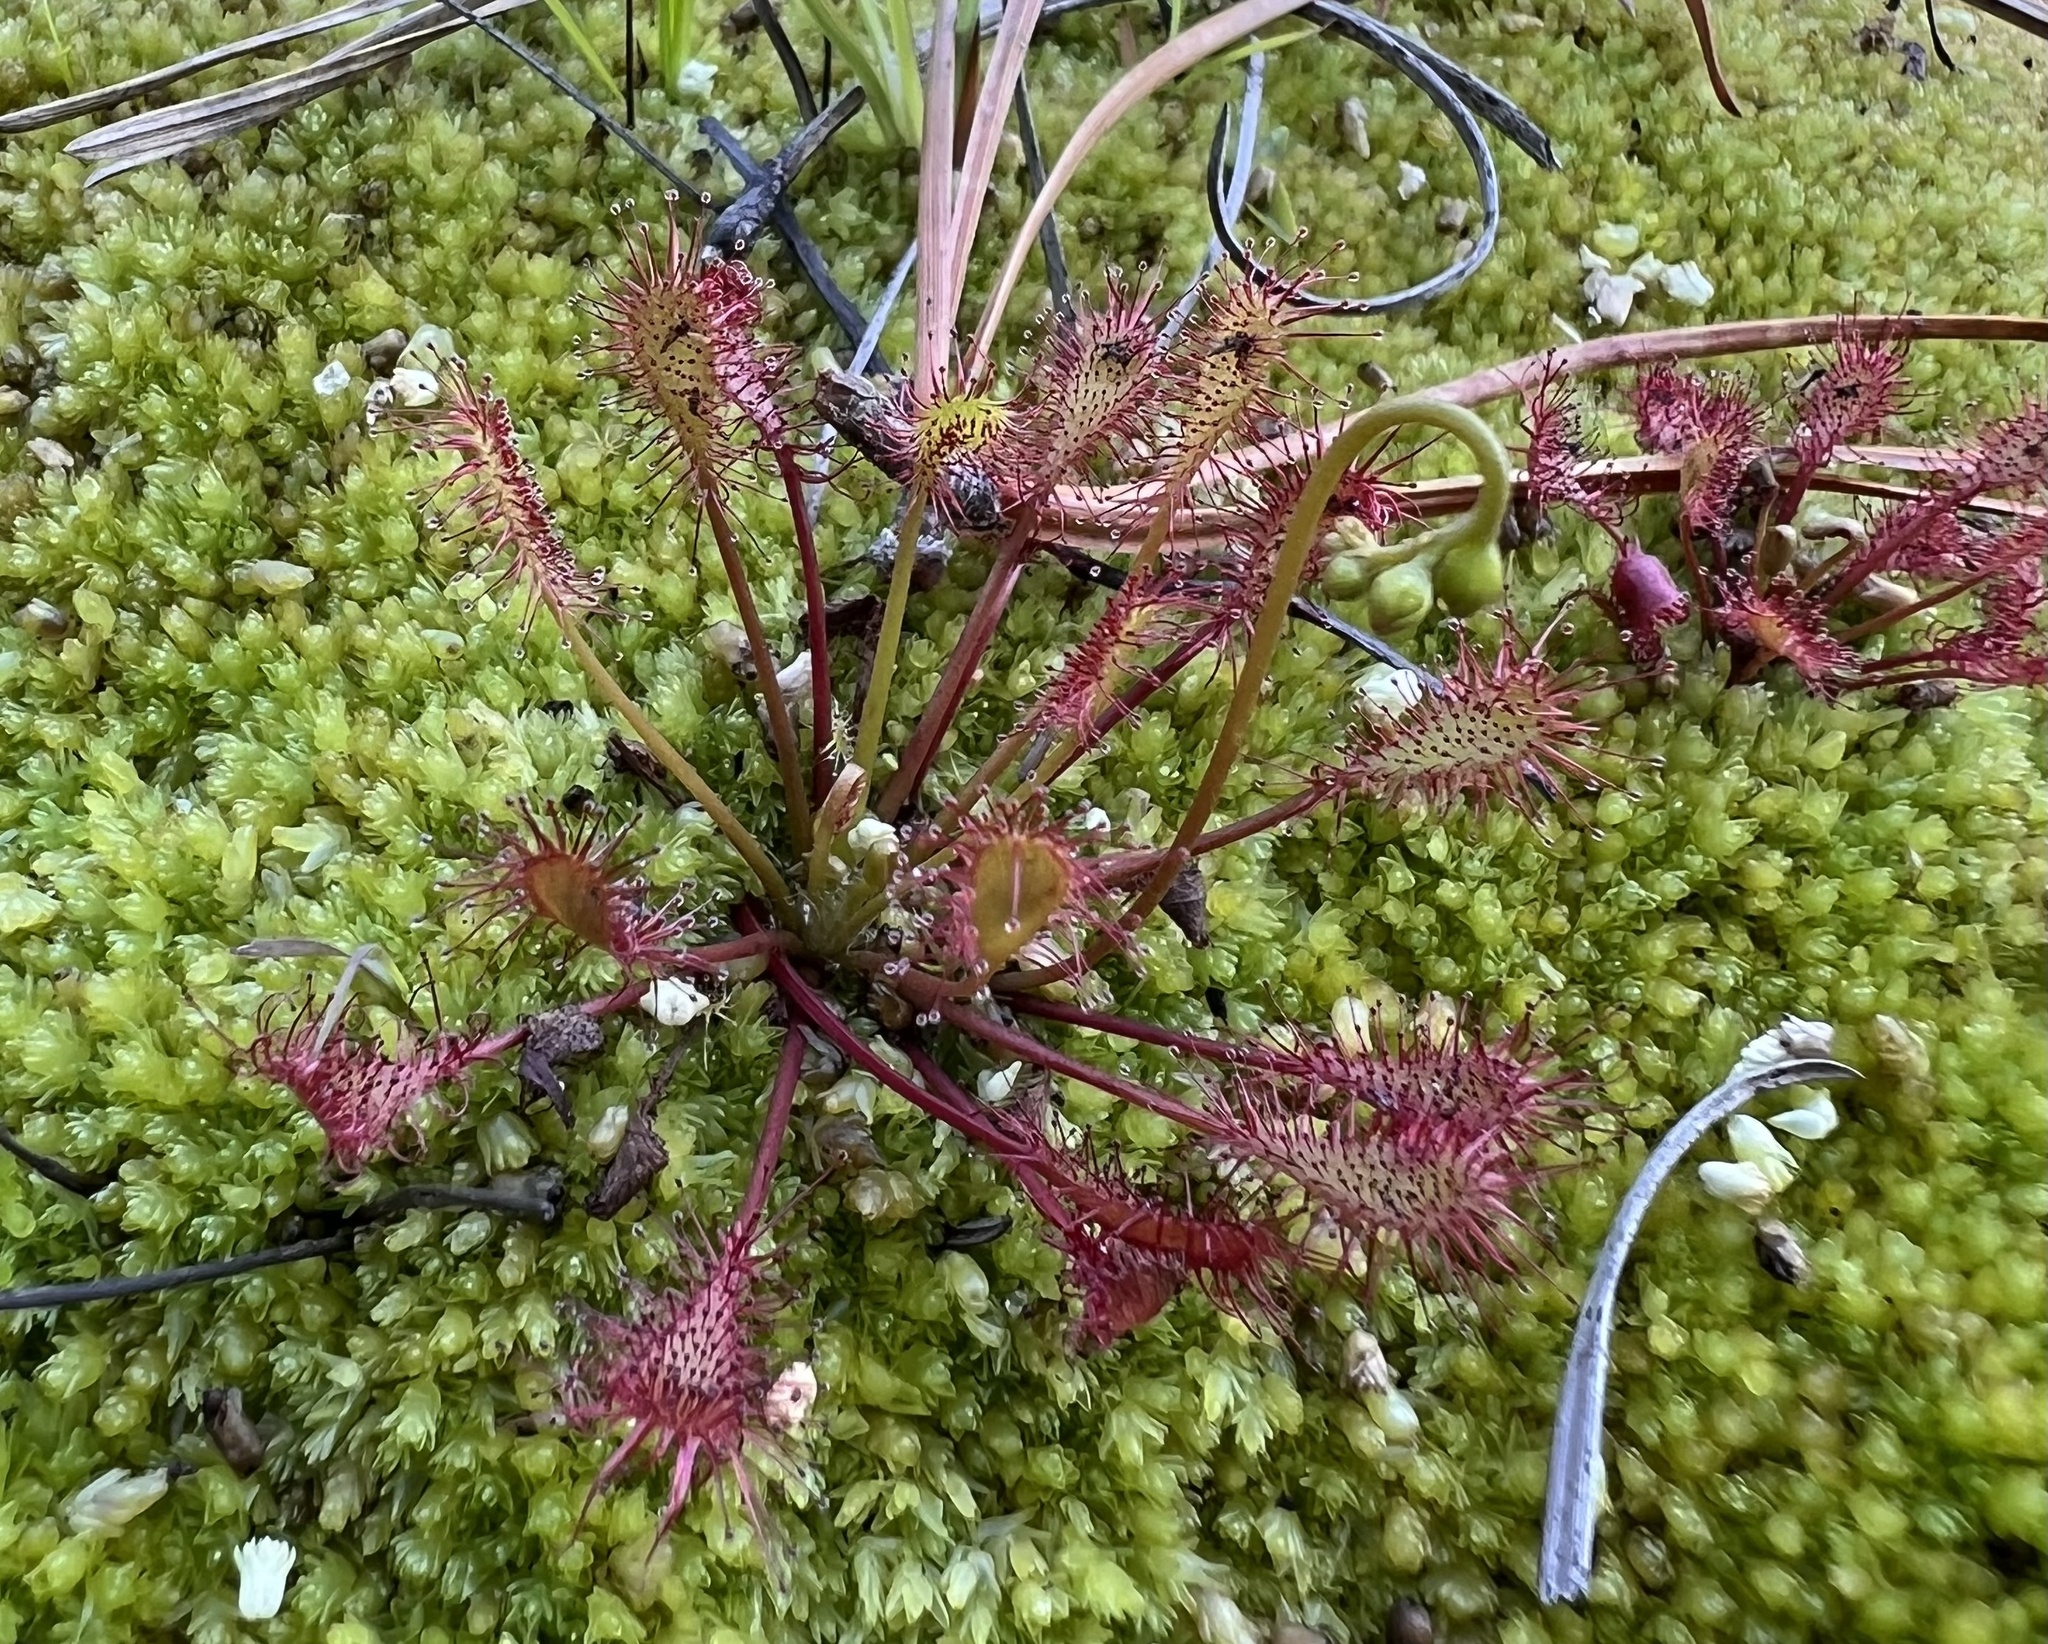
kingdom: Plantae
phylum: Tracheophyta
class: Magnoliopsida
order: Caryophyllales
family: Droseraceae
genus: Drosera
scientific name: Drosera intermedia
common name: Oblong-leaved sundew
